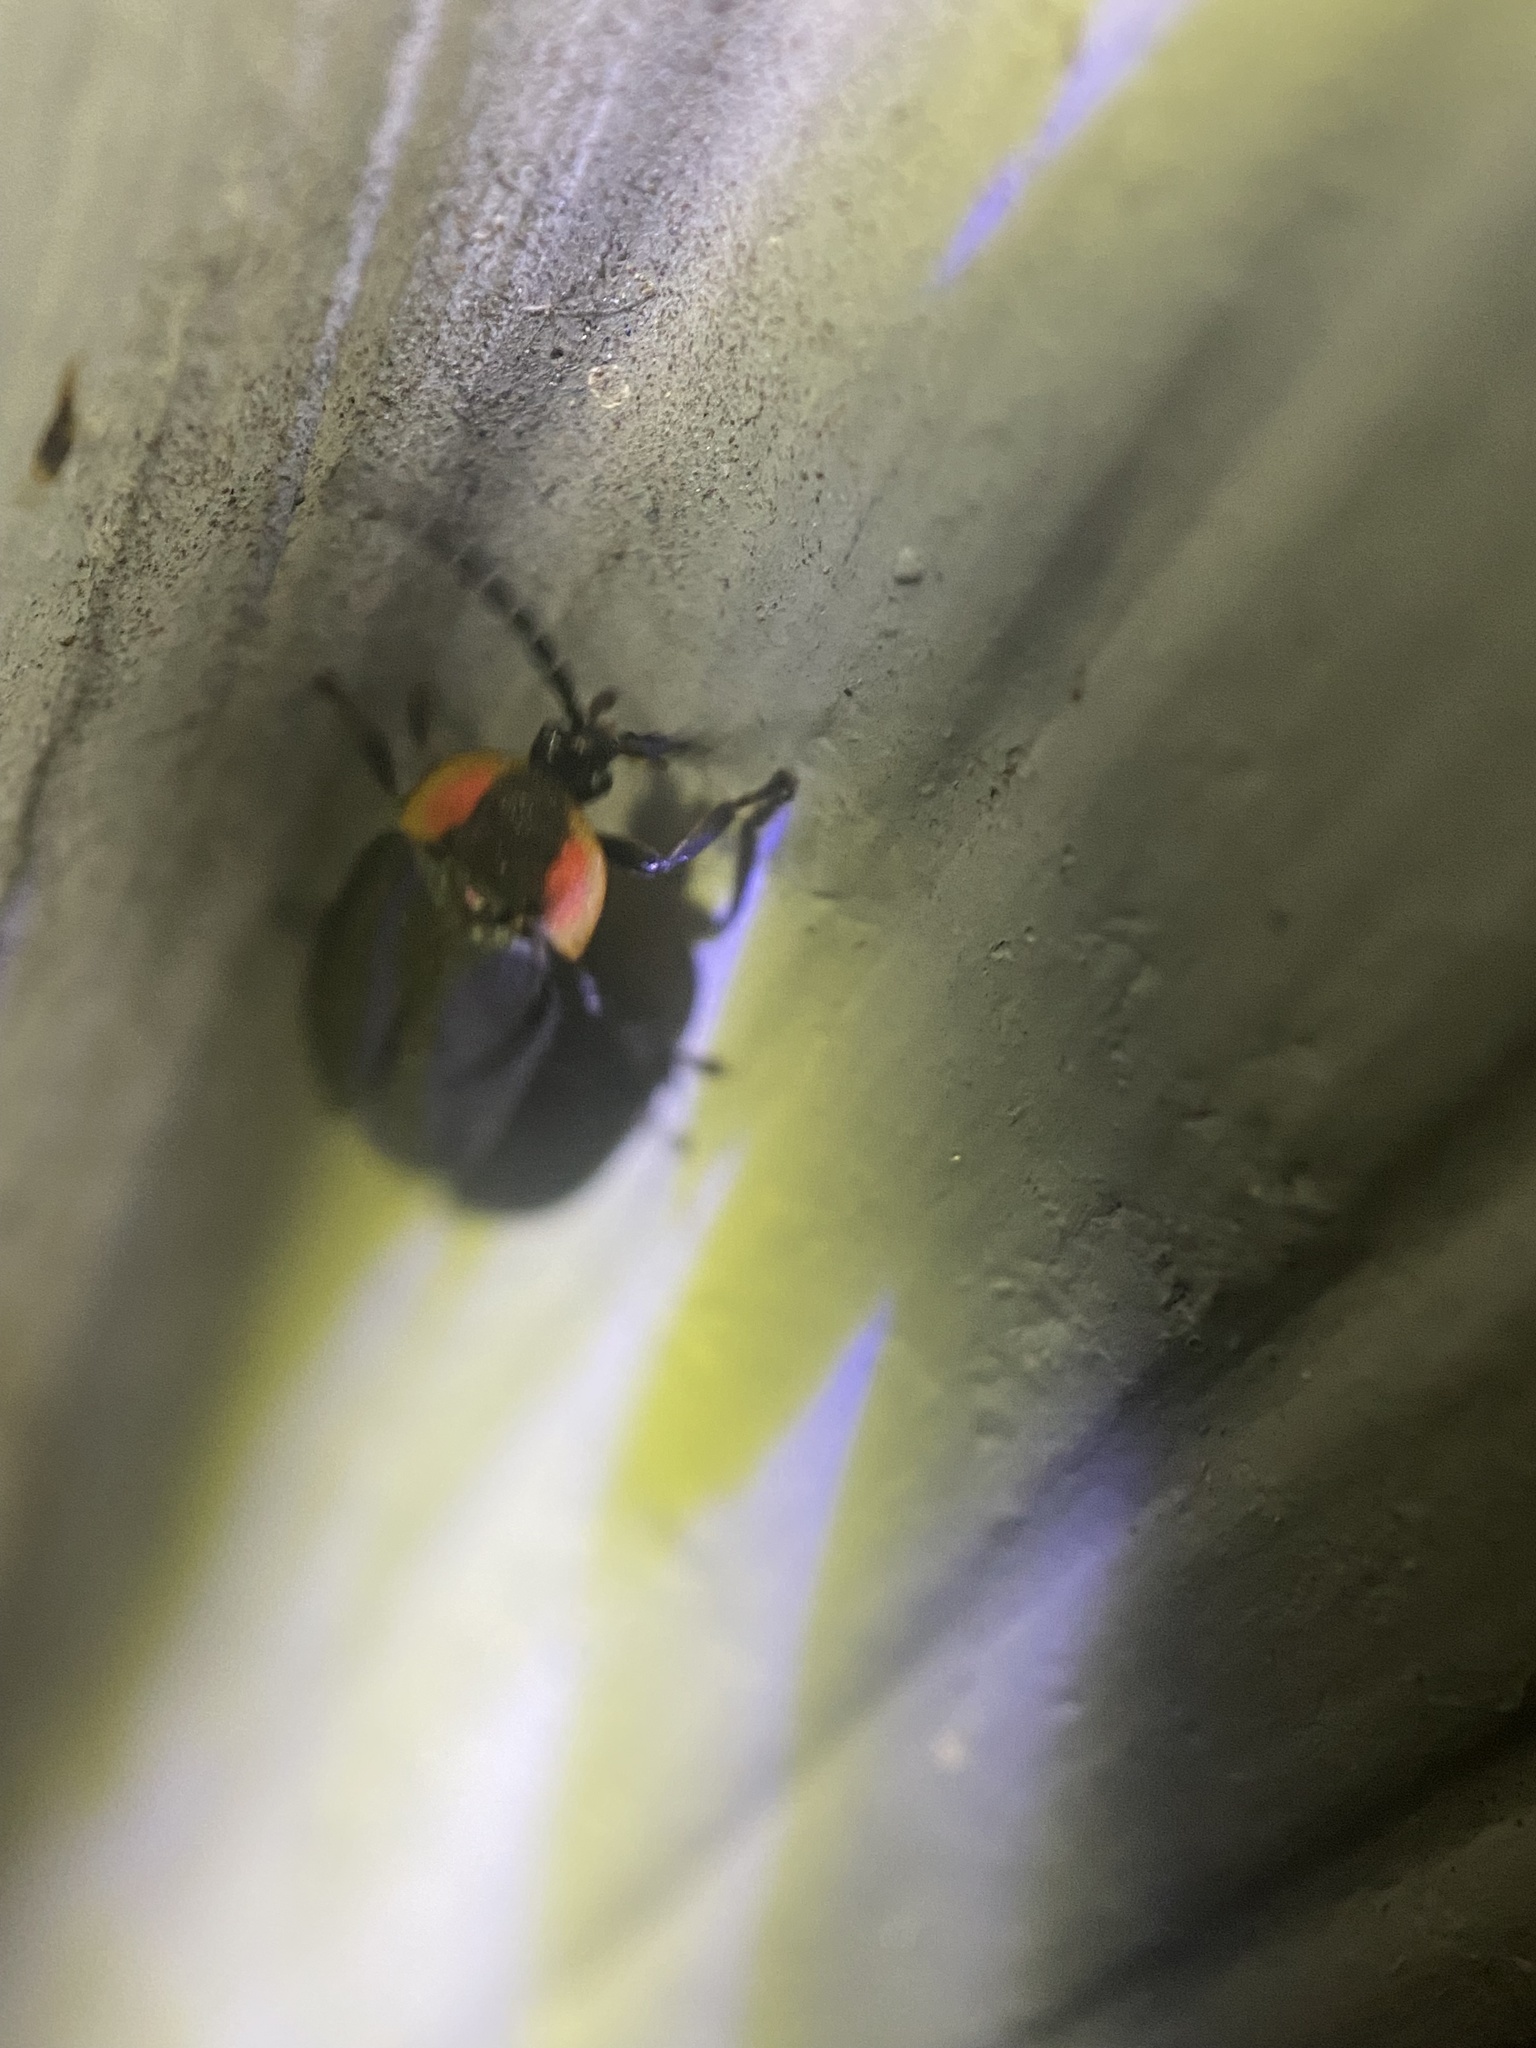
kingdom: Animalia
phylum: Arthropoda
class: Insecta
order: Coleoptera
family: Lampyridae
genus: Lucidota
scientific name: Lucidota atra
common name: Black firefly
